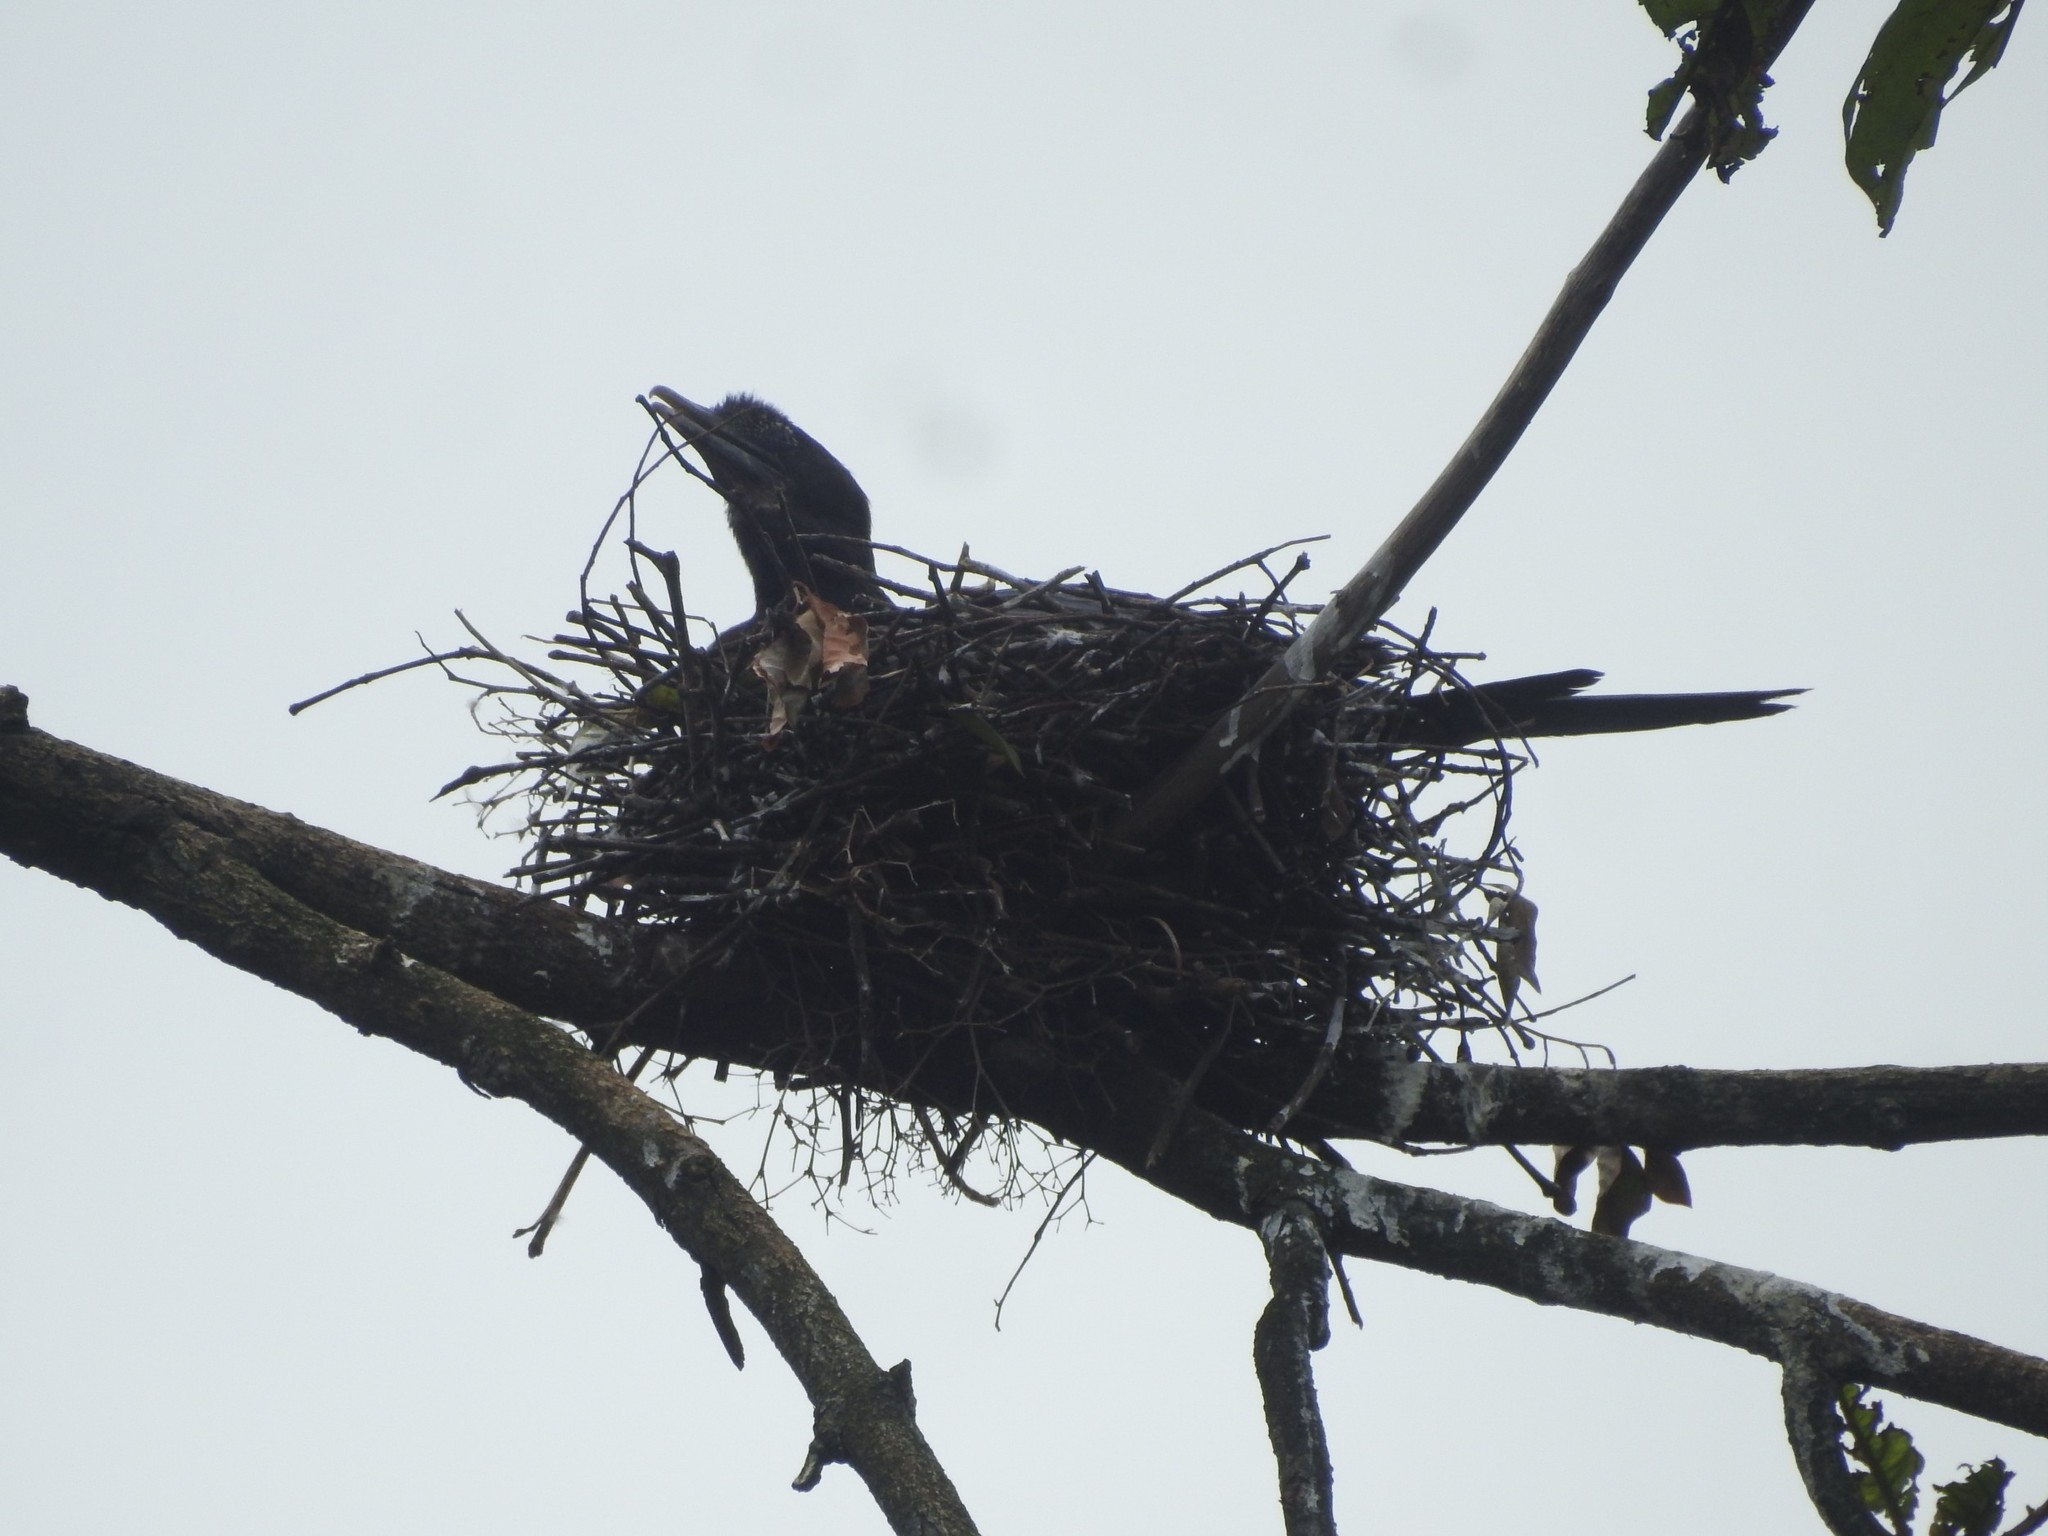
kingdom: Animalia
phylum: Chordata
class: Aves
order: Suliformes
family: Phalacrocoracidae
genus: Microcarbo
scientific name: Microcarbo niger
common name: Little cormorant
